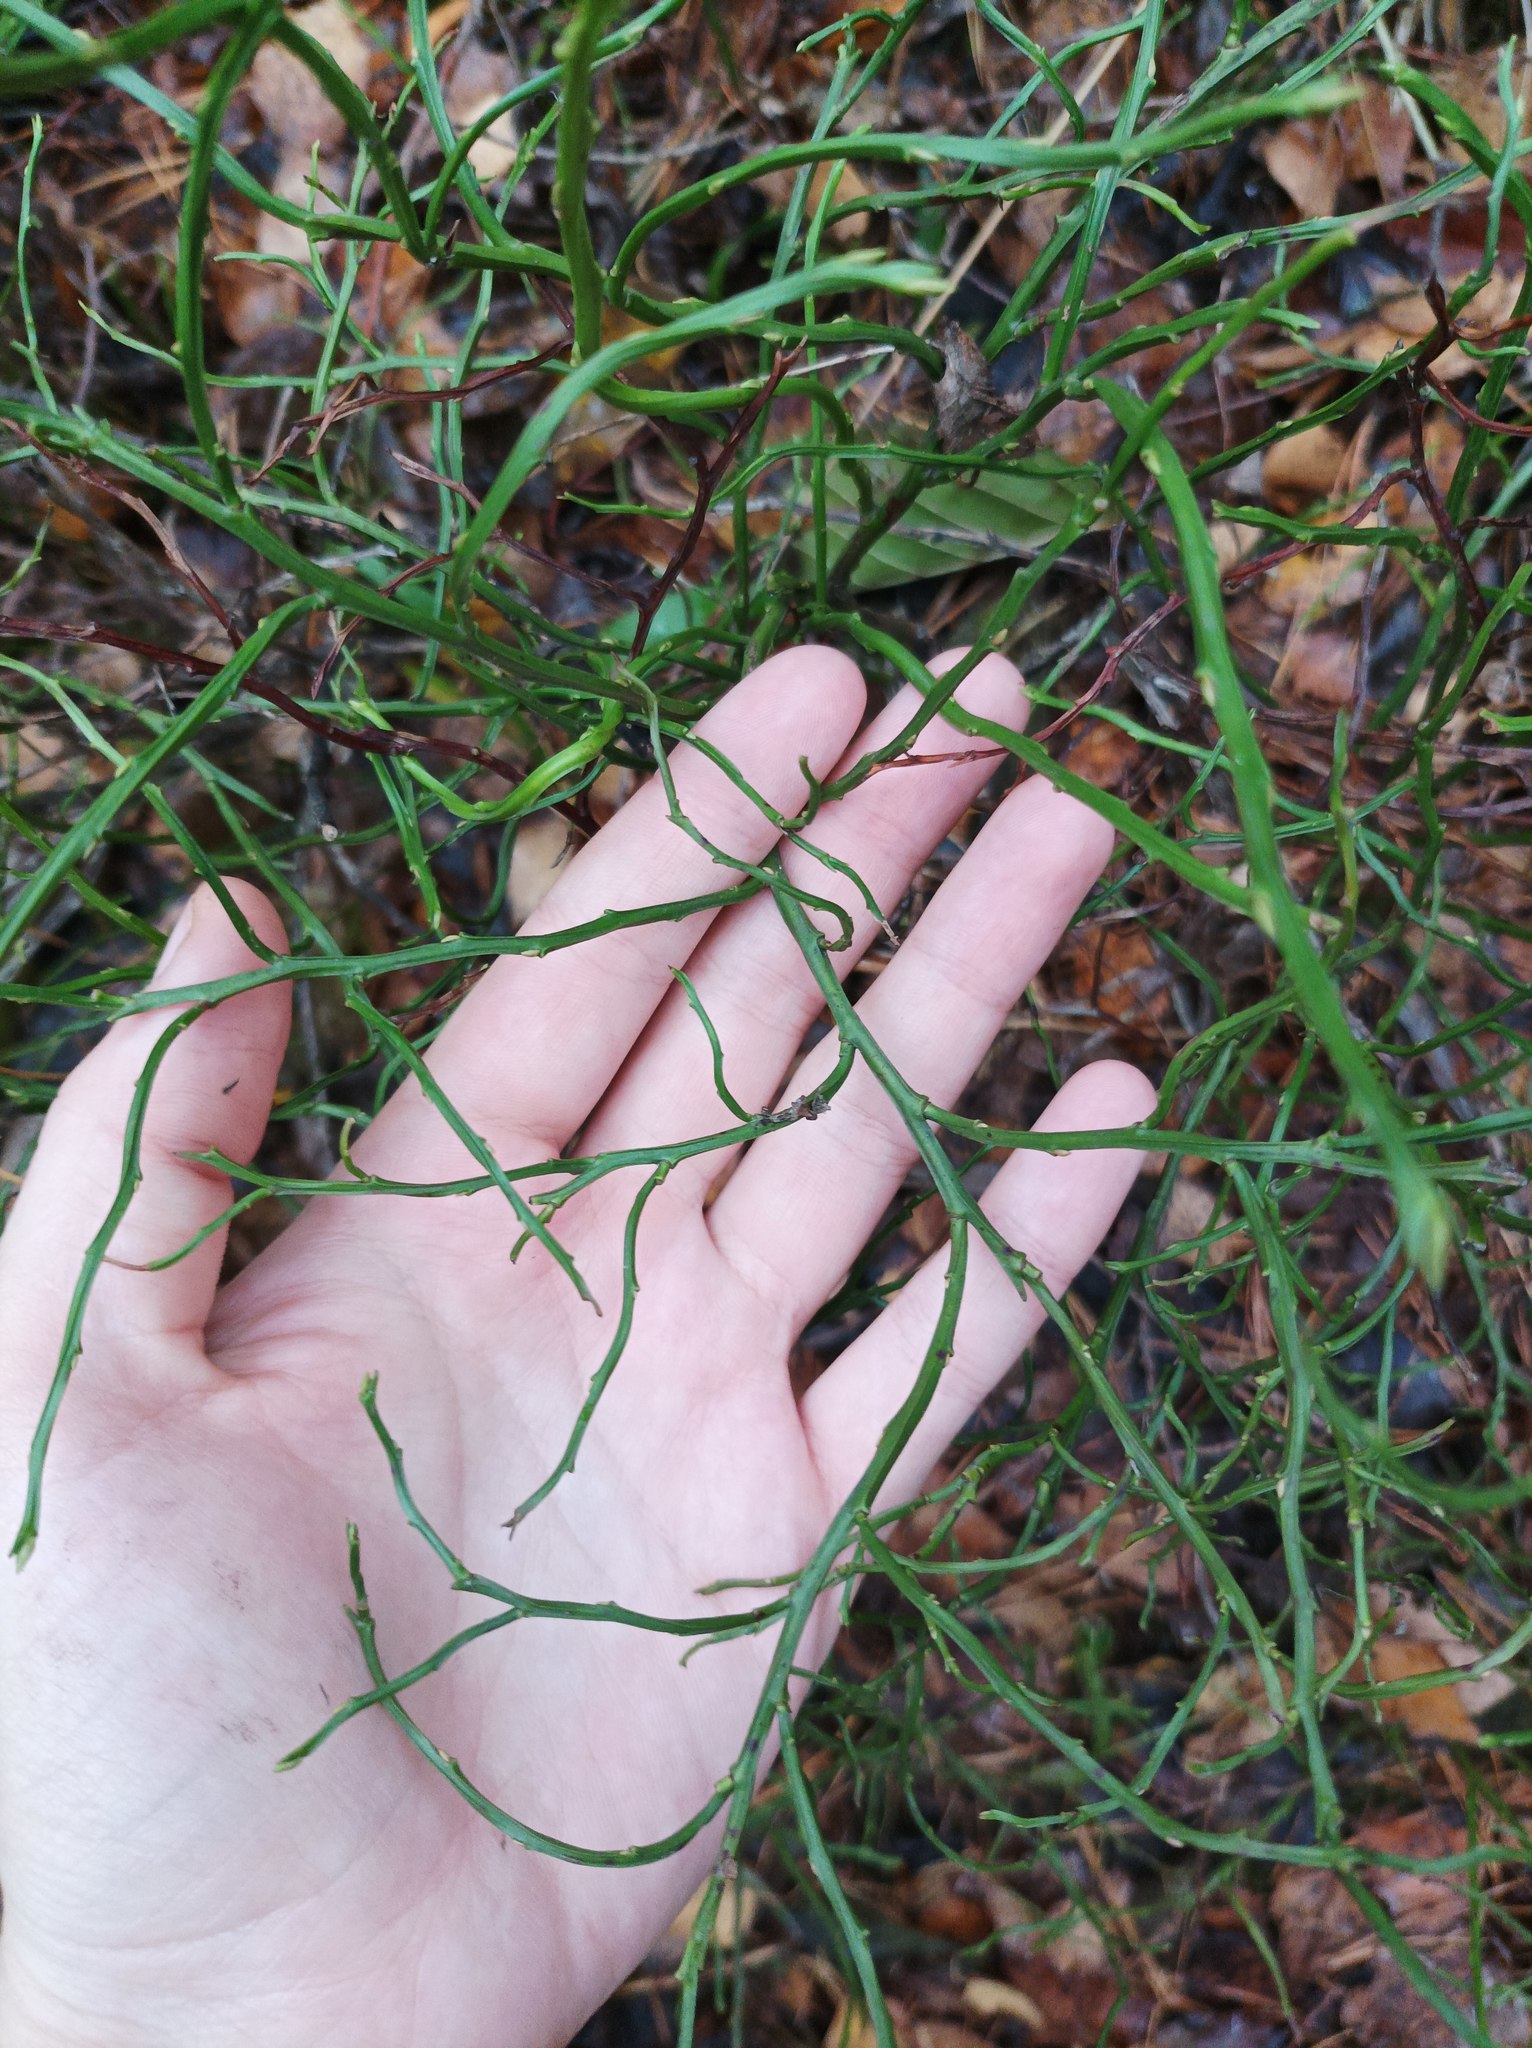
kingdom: Plantae
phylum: Tracheophyta
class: Magnoliopsida
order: Ericales
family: Ericaceae
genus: Vaccinium
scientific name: Vaccinium myrtillus
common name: Bilberry
